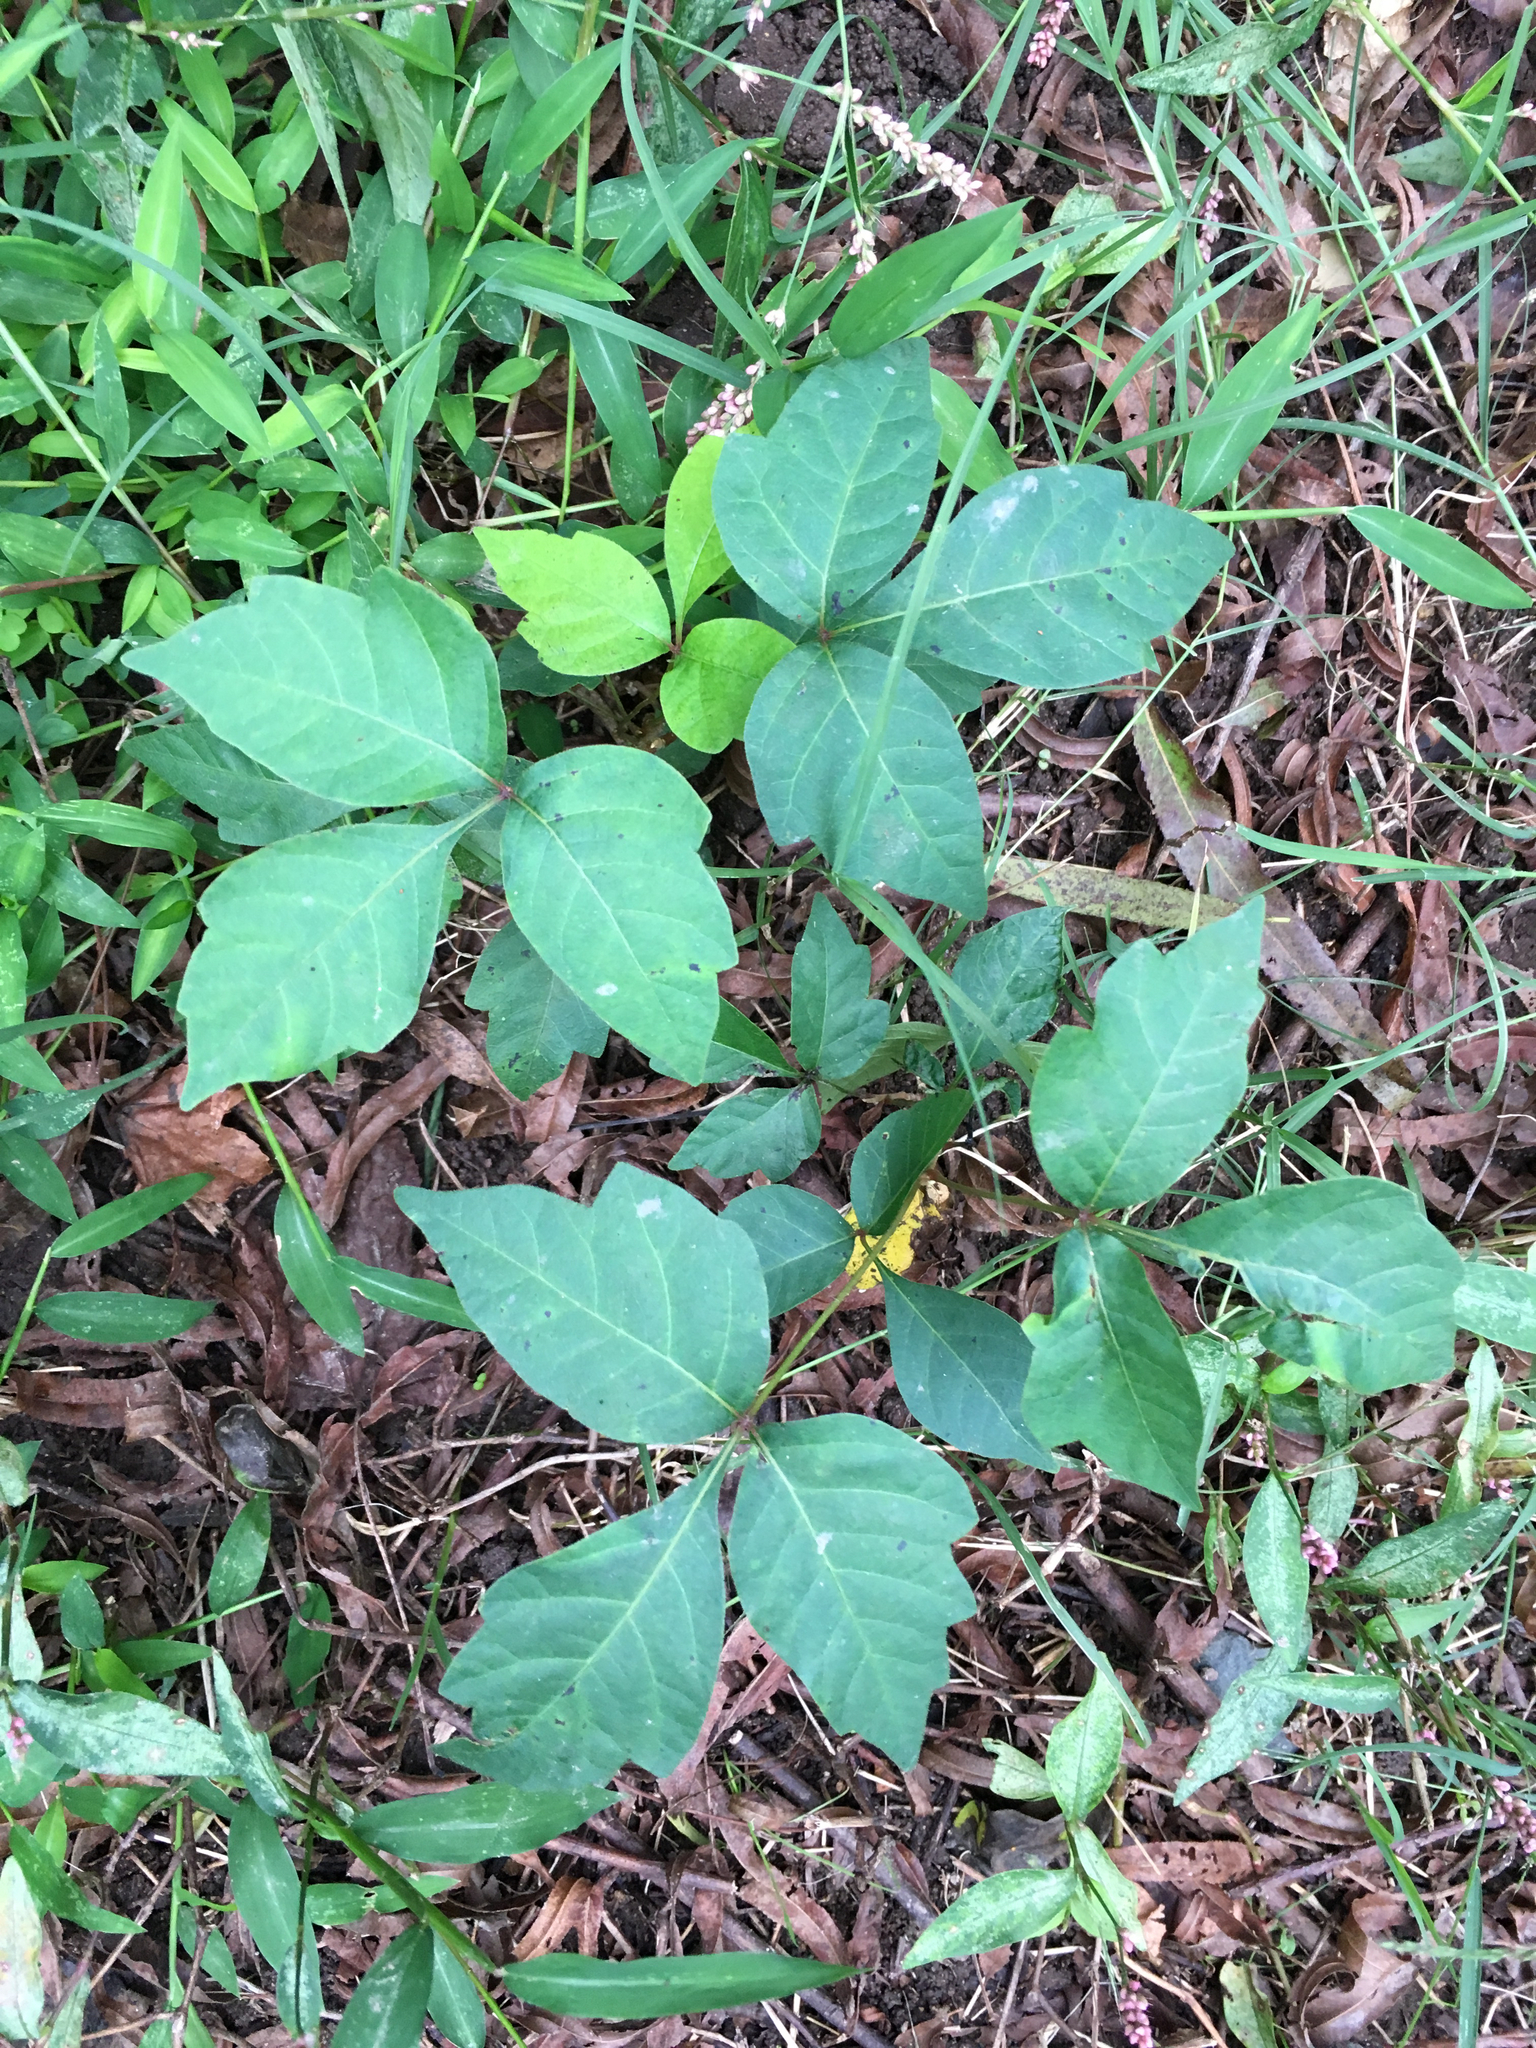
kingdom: Plantae
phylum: Tracheophyta
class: Magnoliopsida
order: Sapindales
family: Anacardiaceae
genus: Toxicodendron
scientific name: Toxicodendron radicans
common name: Poison ivy
